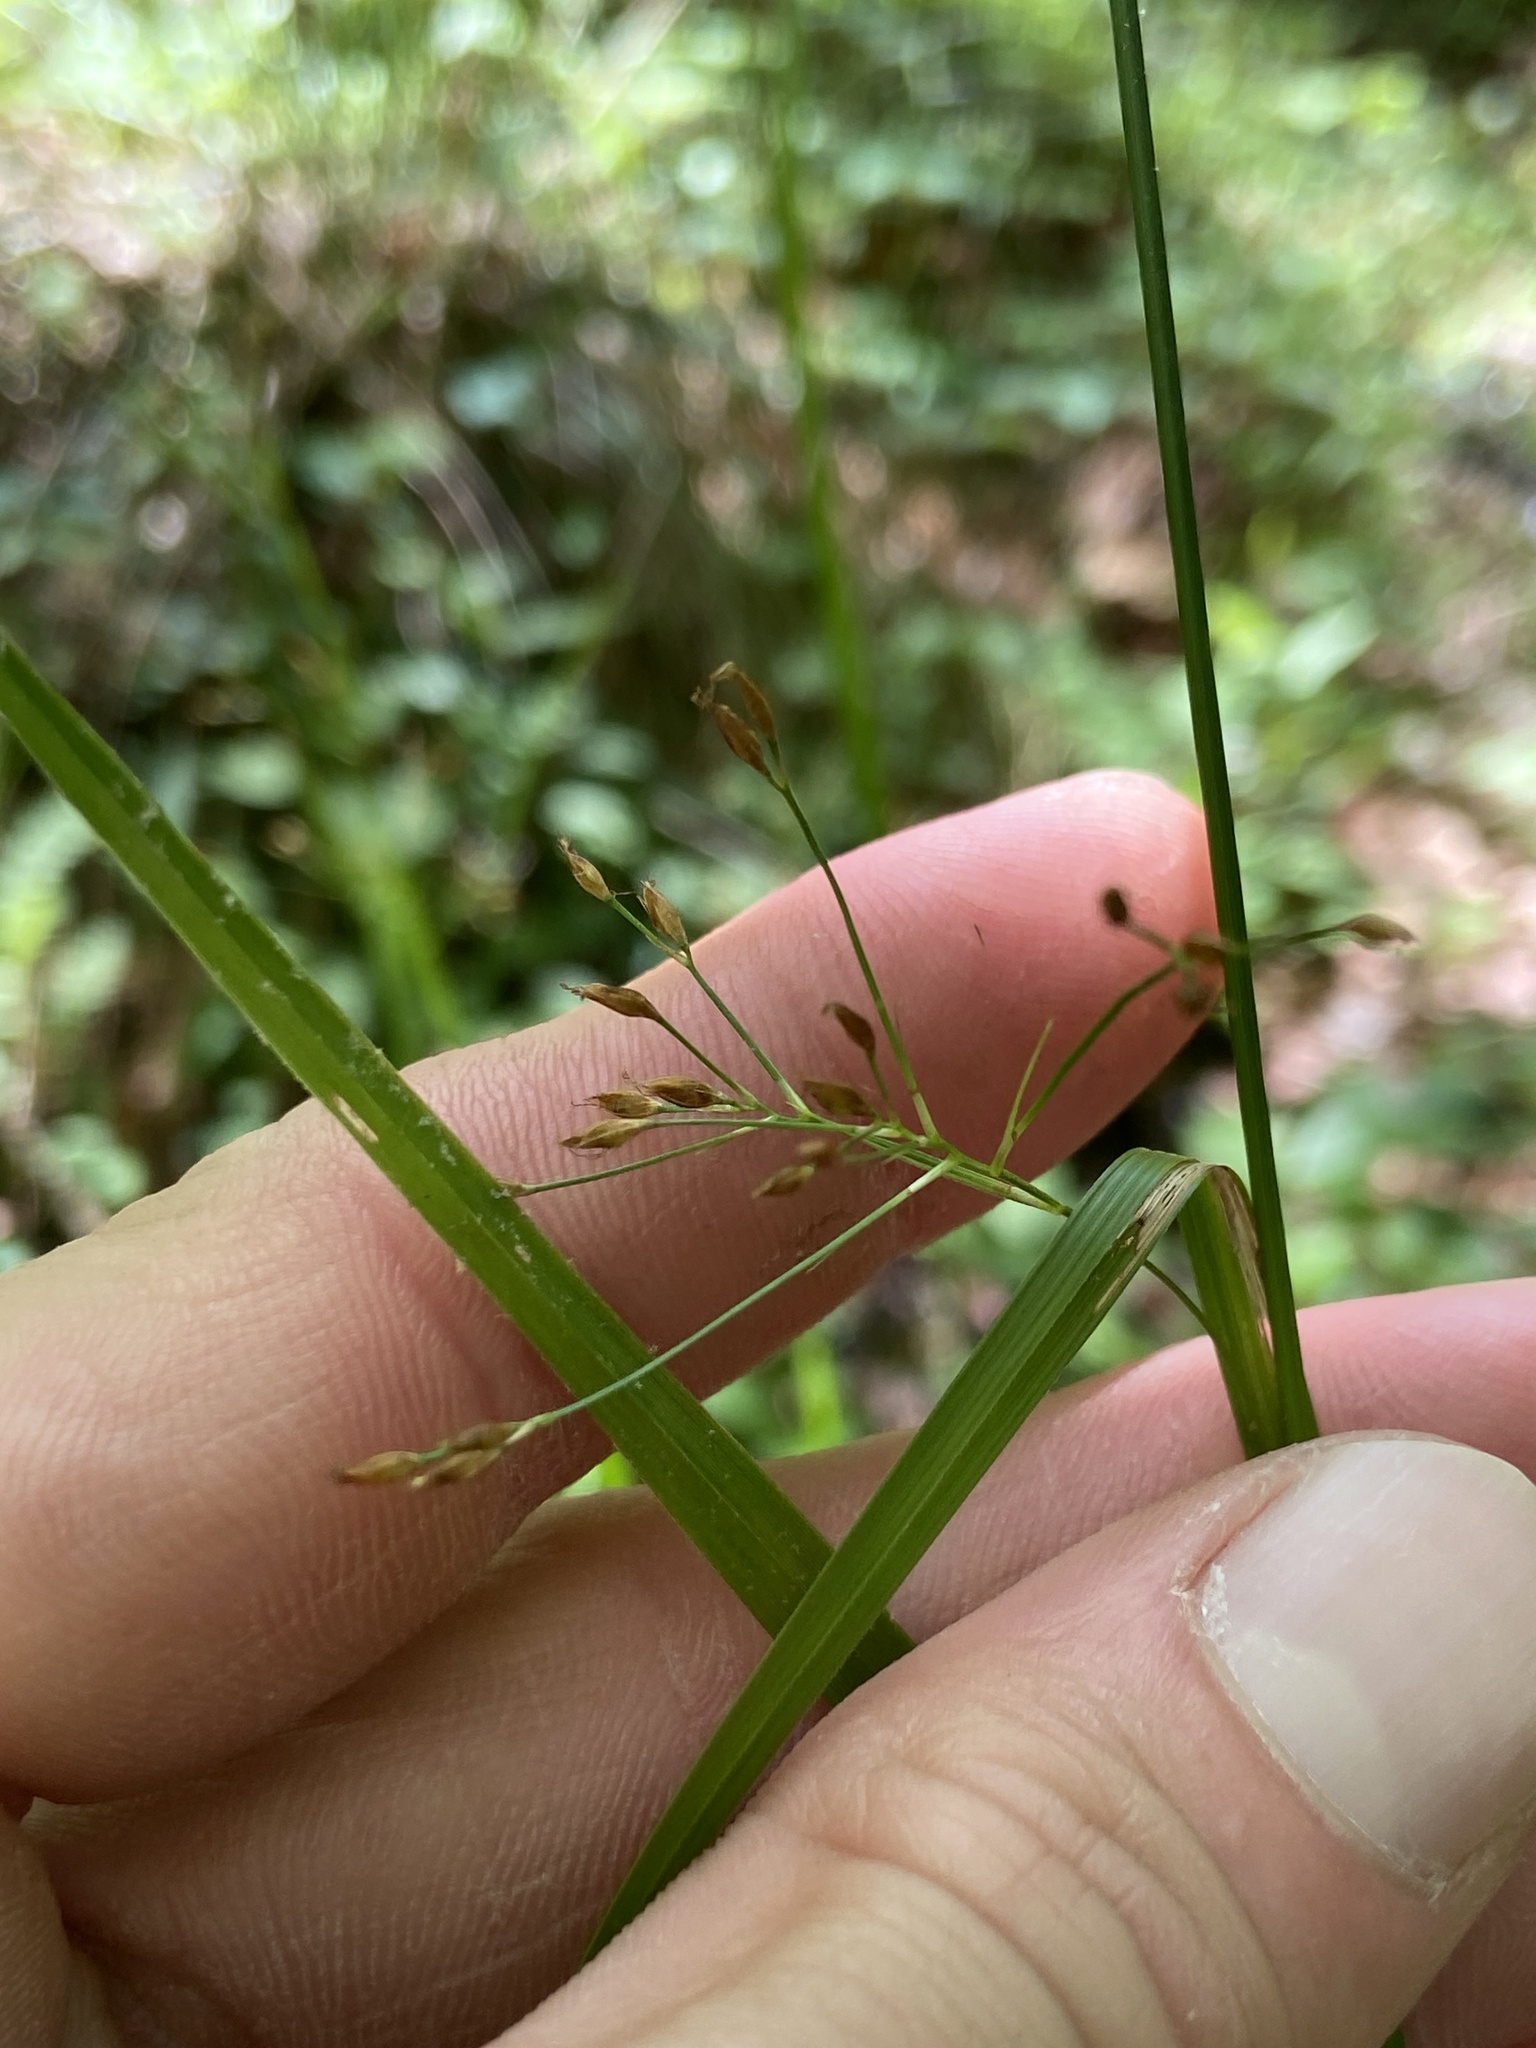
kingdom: Plantae
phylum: Tracheophyta
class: Liliopsida
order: Poales
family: Cyperaceae
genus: Rhynchospora
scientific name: Rhynchospora mixta
